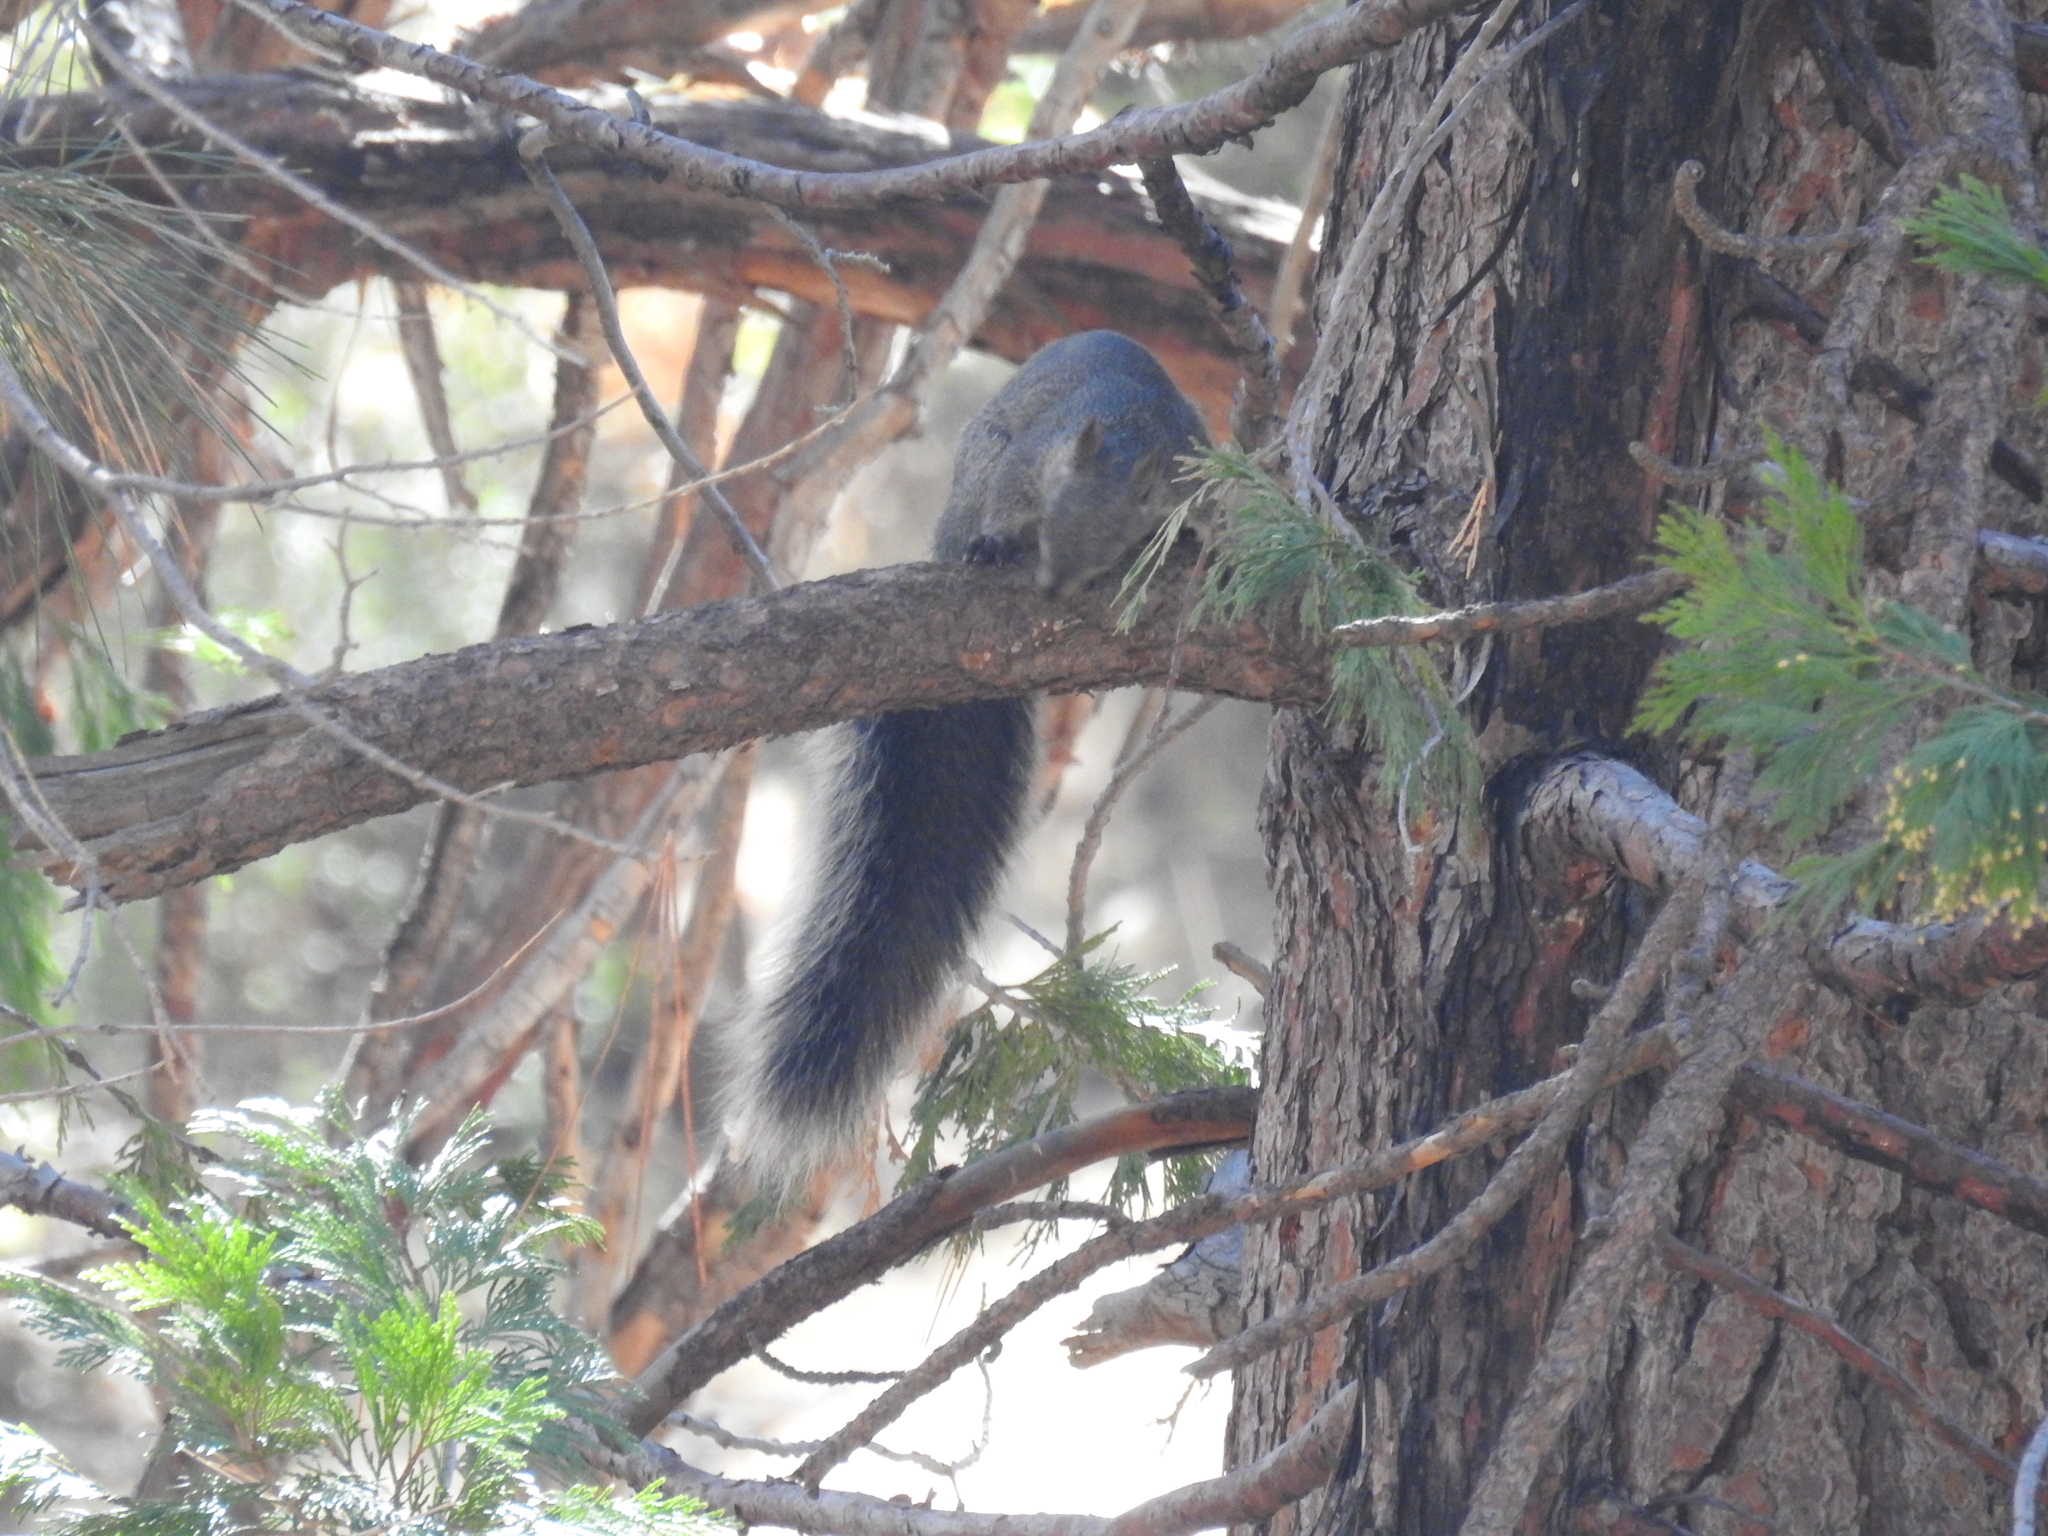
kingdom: Animalia
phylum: Chordata
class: Mammalia
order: Rodentia
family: Sciuridae
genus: Sciurus
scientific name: Sciurus griseus
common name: Western gray squirrel
